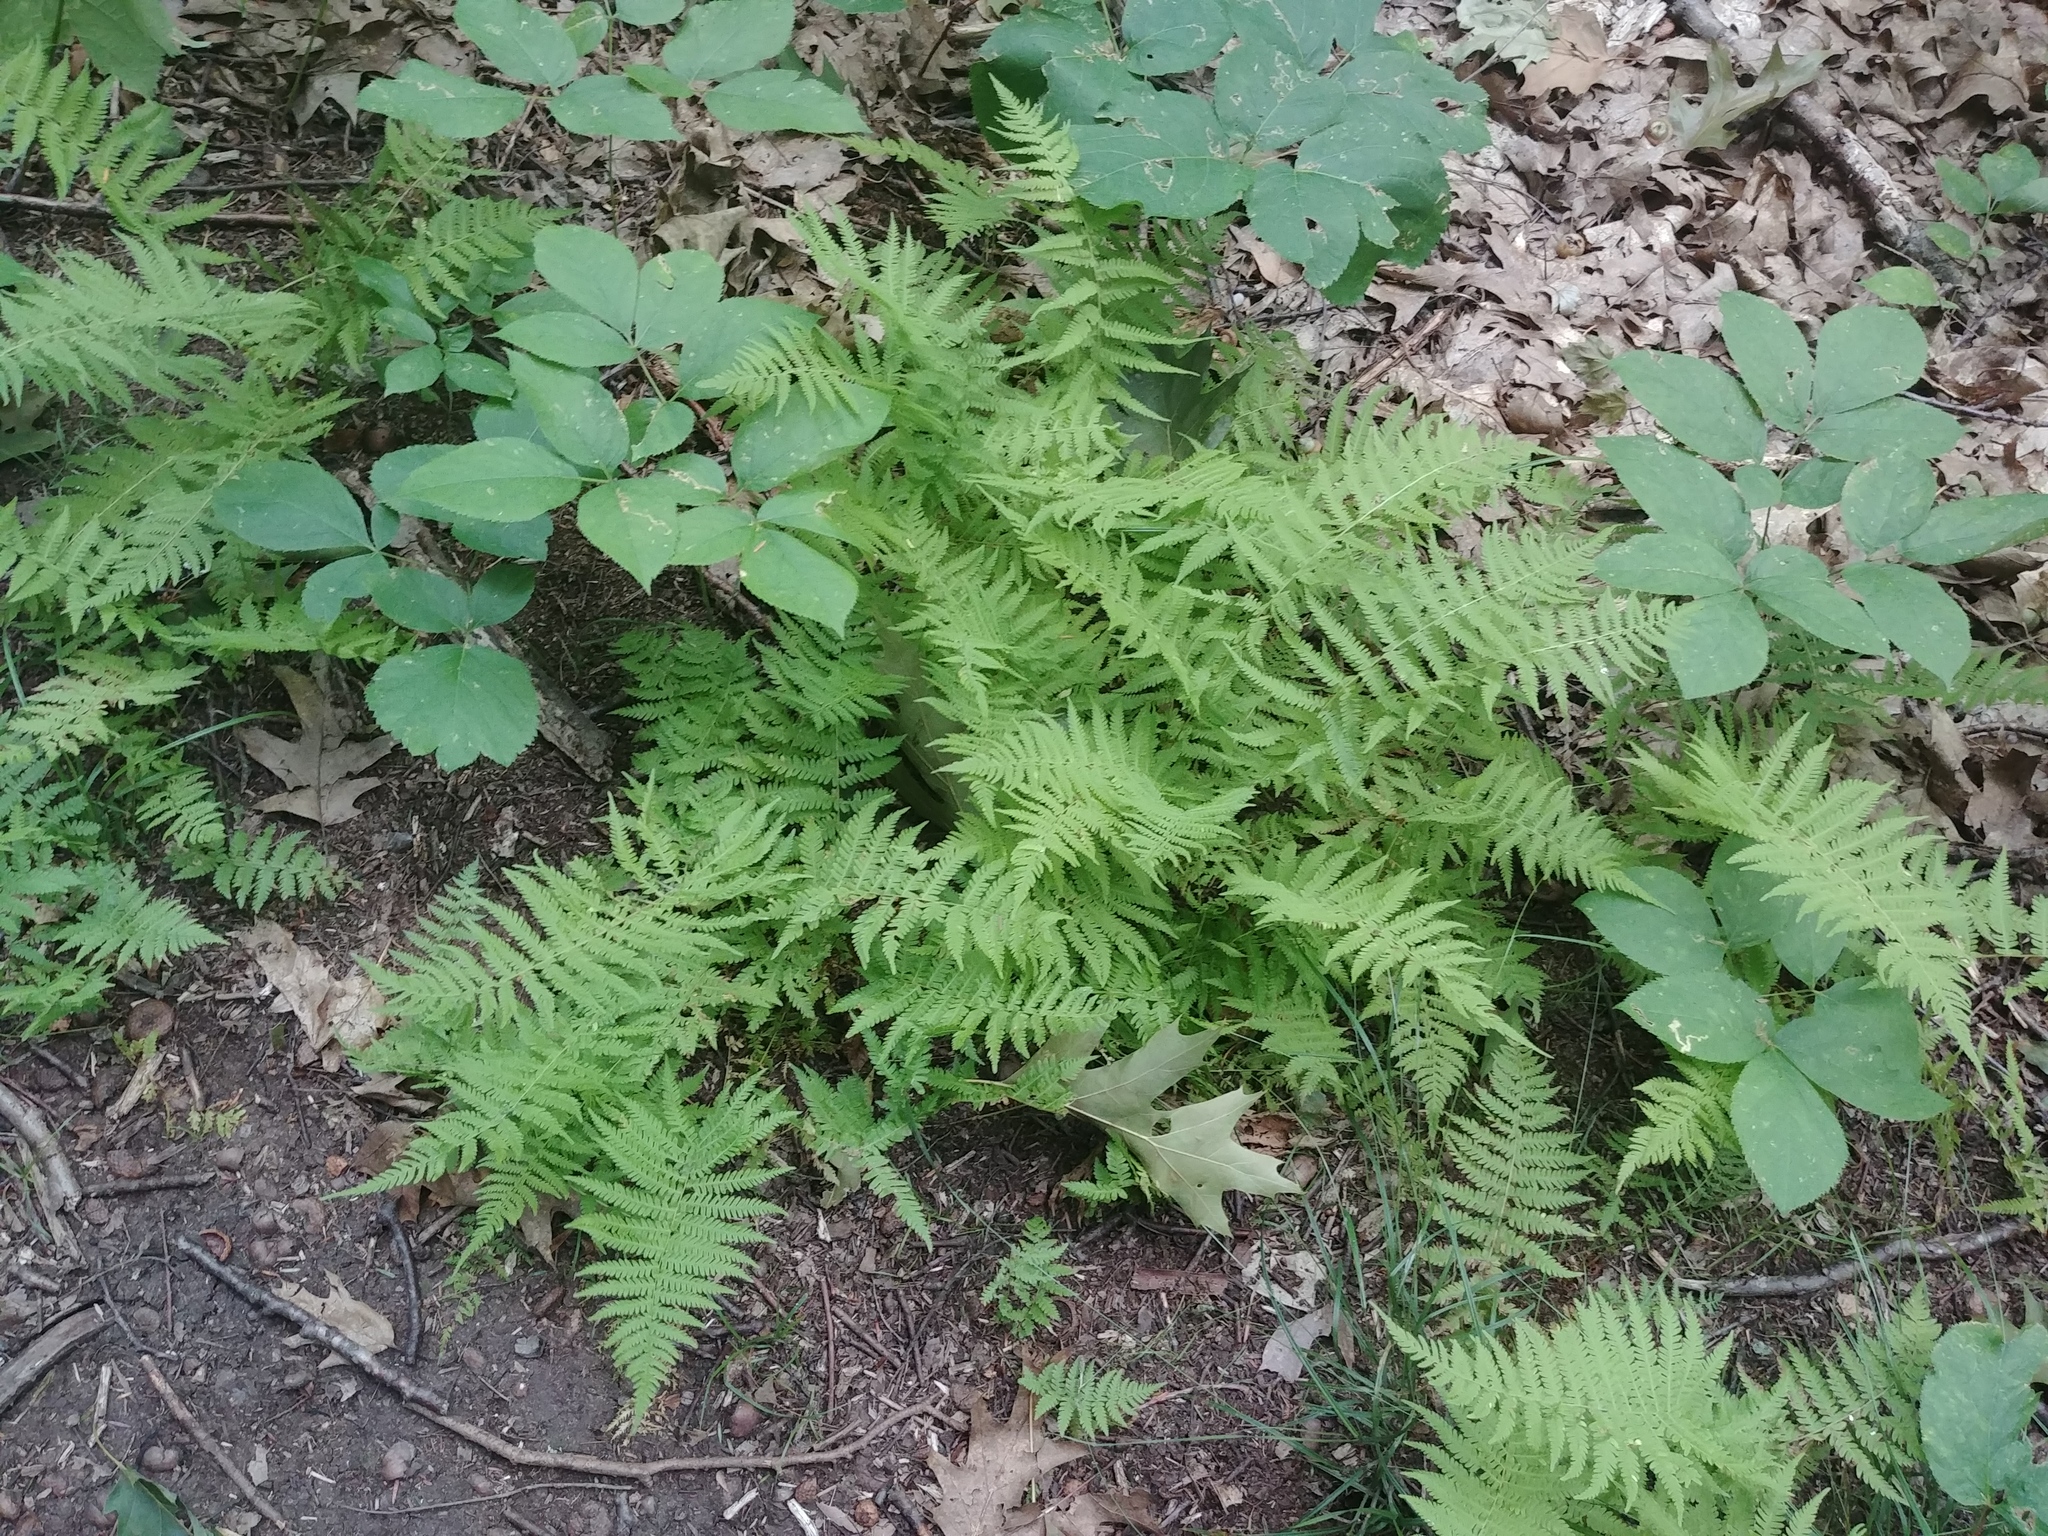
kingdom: Plantae
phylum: Tracheophyta
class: Polypodiopsida
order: Polypodiales
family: Thelypteridaceae
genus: Amauropelta
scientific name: Amauropelta noveboracensis
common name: New york fern
